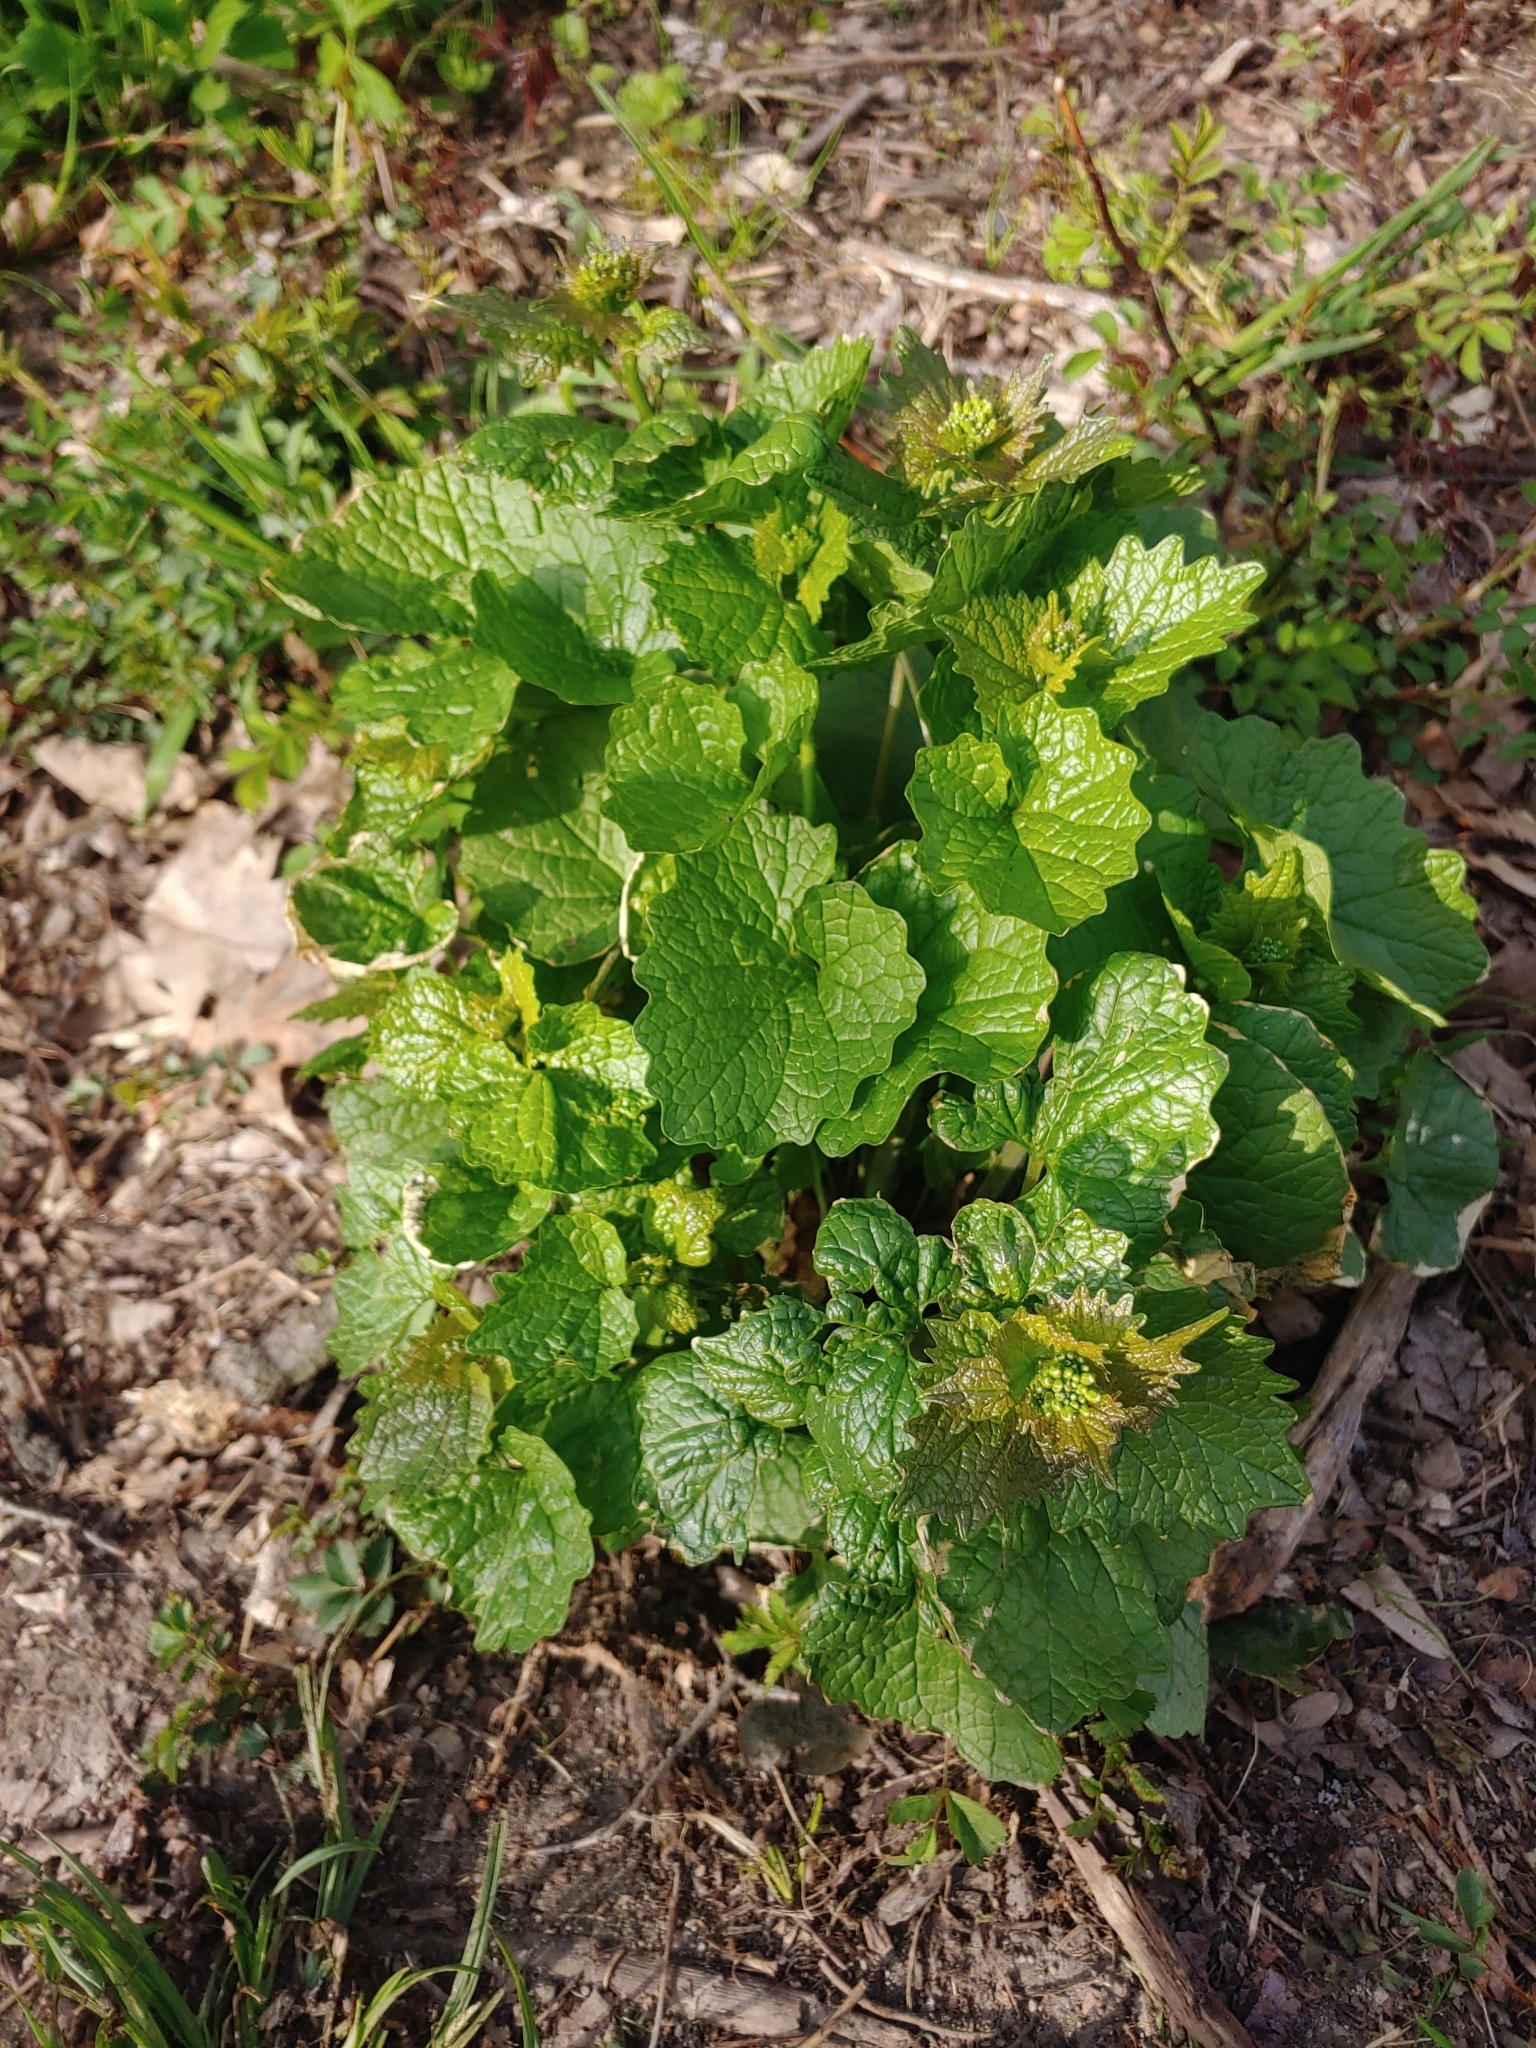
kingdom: Plantae
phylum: Tracheophyta
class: Magnoliopsida
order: Brassicales
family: Brassicaceae
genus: Alliaria
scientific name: Alliaria petiolata
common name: Garlic mustard
